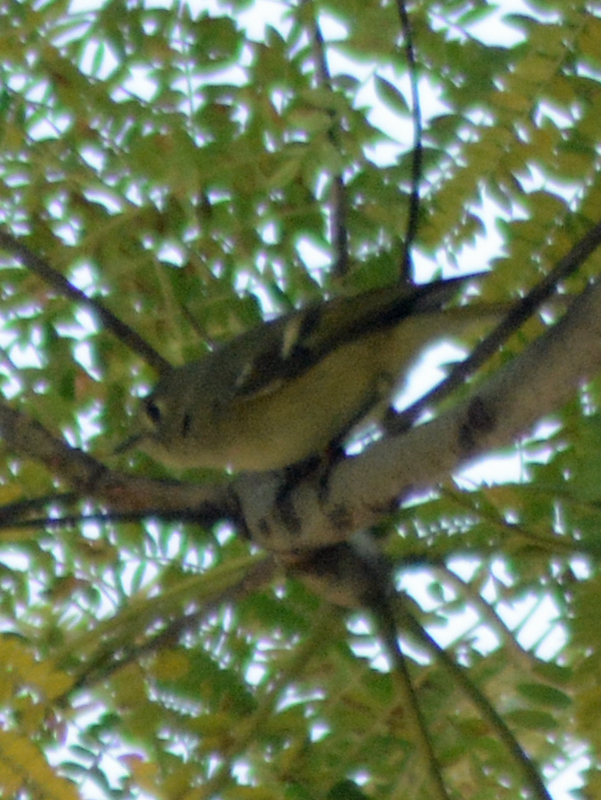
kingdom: Animalia
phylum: Chordata
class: Aves
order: Passeriformes
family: Regulidae
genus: Regulus
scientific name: Regulus calendula
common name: Ruby-crowned kinglet
